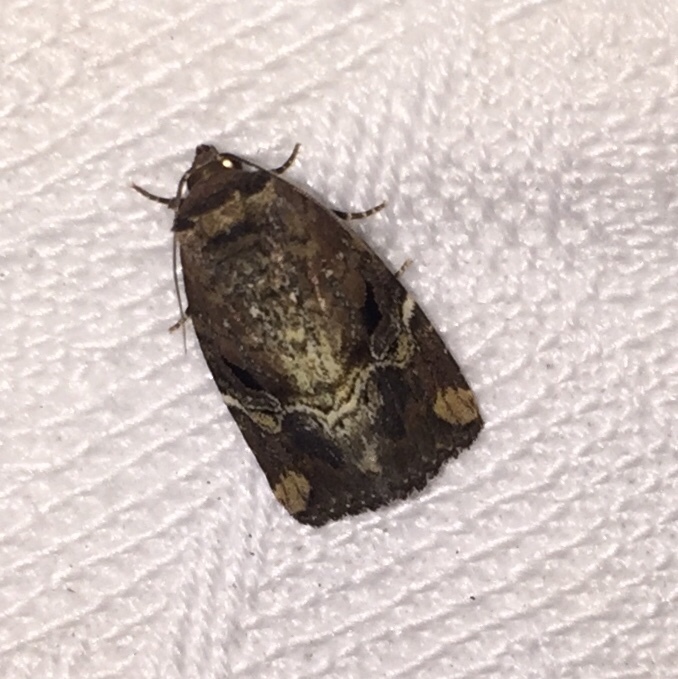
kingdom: Animalia
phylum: Arthropoda
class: Insecta
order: Lepidoptera
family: Noctuidae
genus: Elaphria
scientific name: Elaphria versicolor
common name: Fir harlequin
